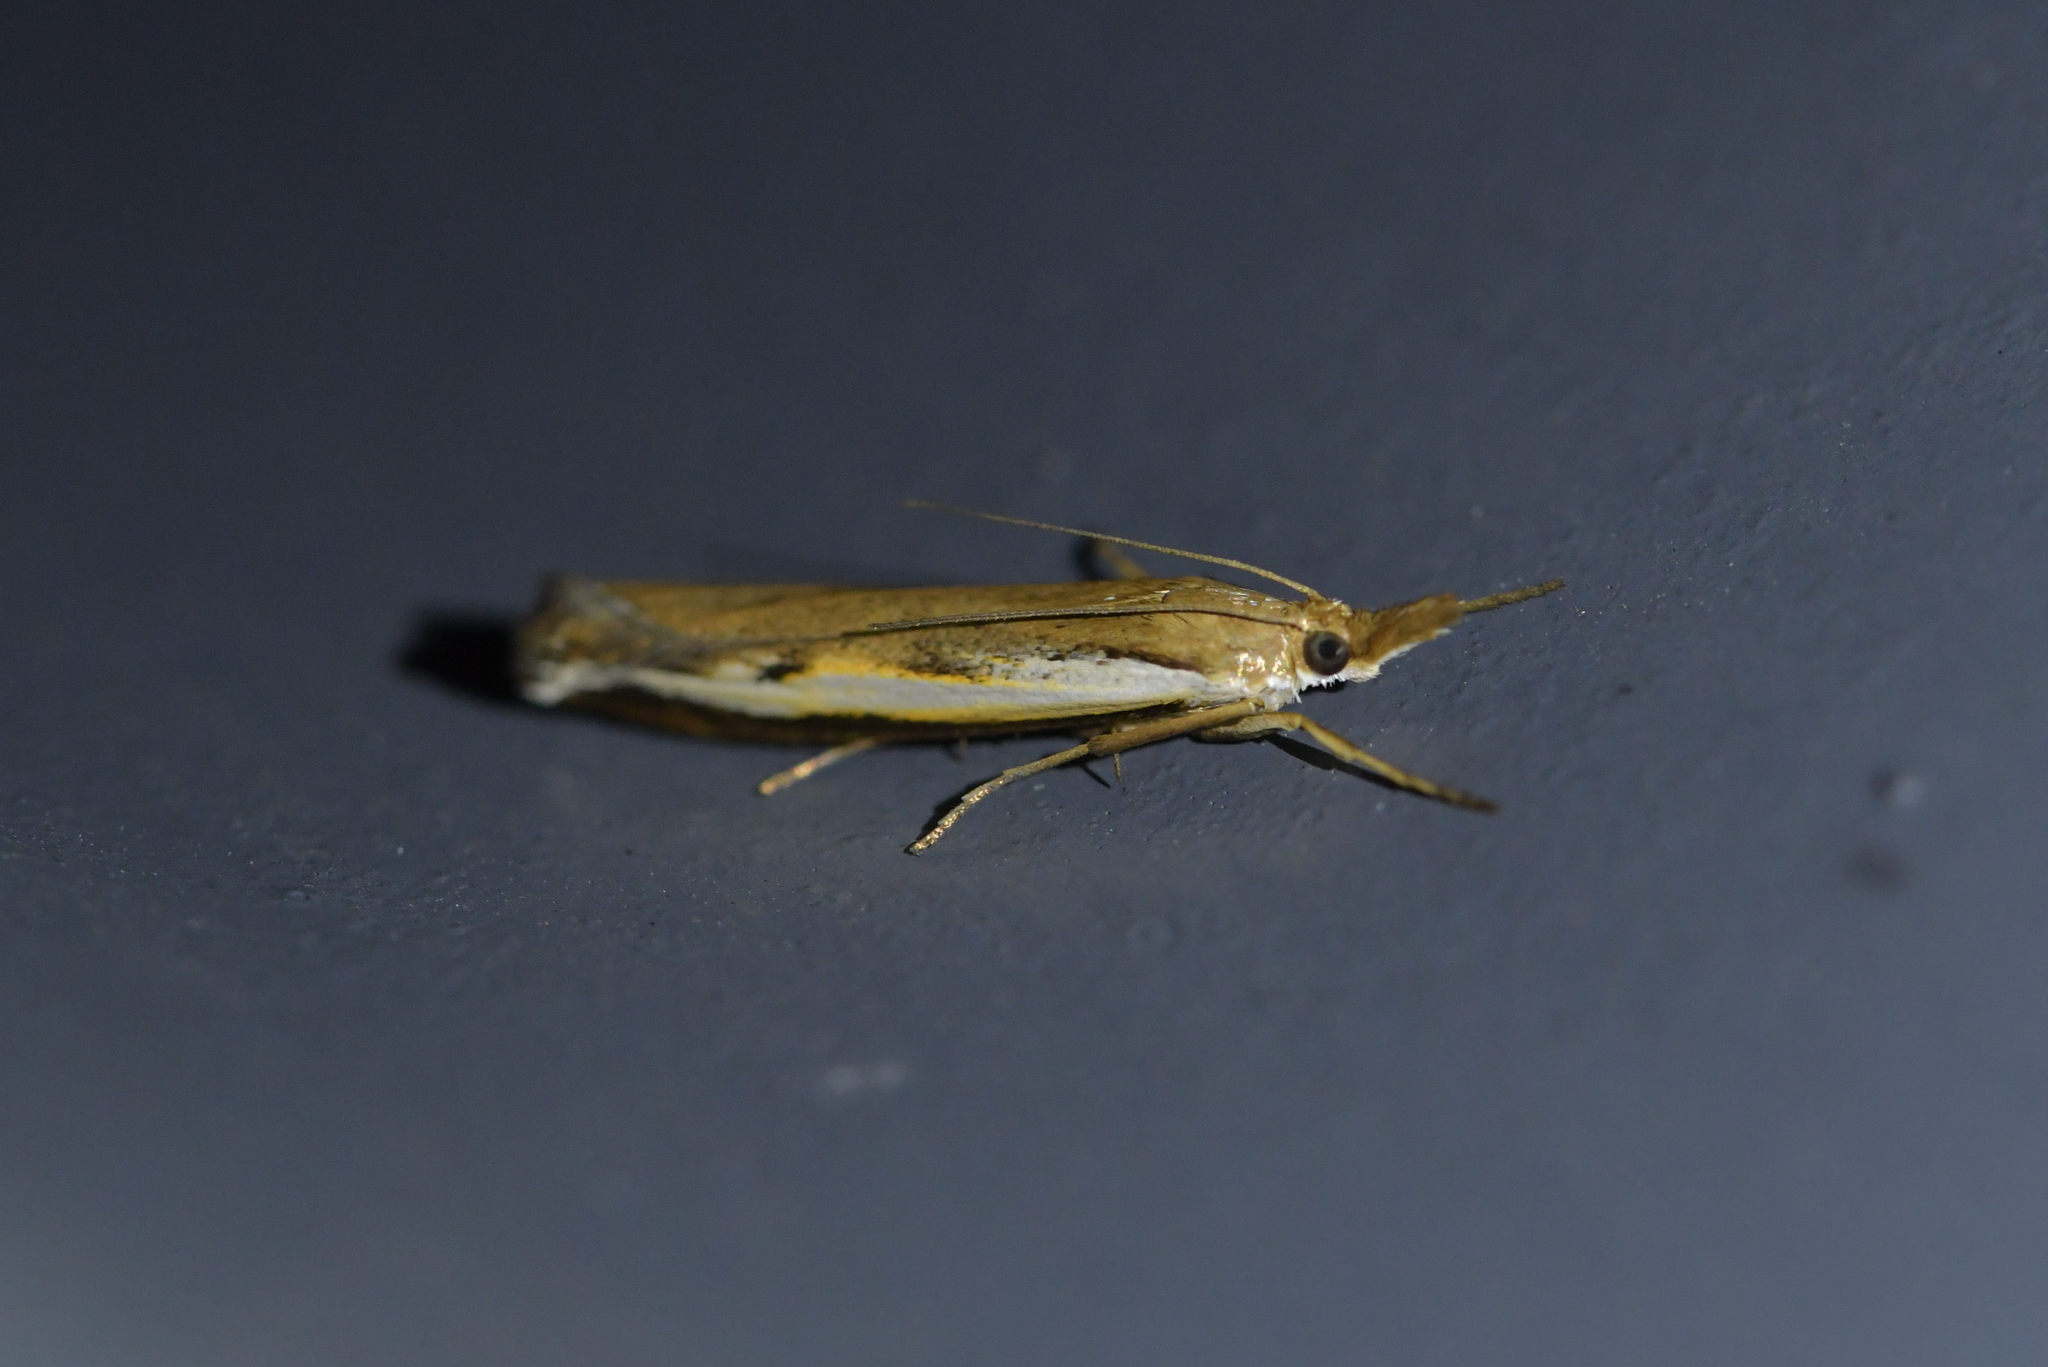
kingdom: Animalia
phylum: Arthropoda
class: Insecta
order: Lepidoptera
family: Crambidae
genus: Orocrambus
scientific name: Orocrambus flexuosellus
